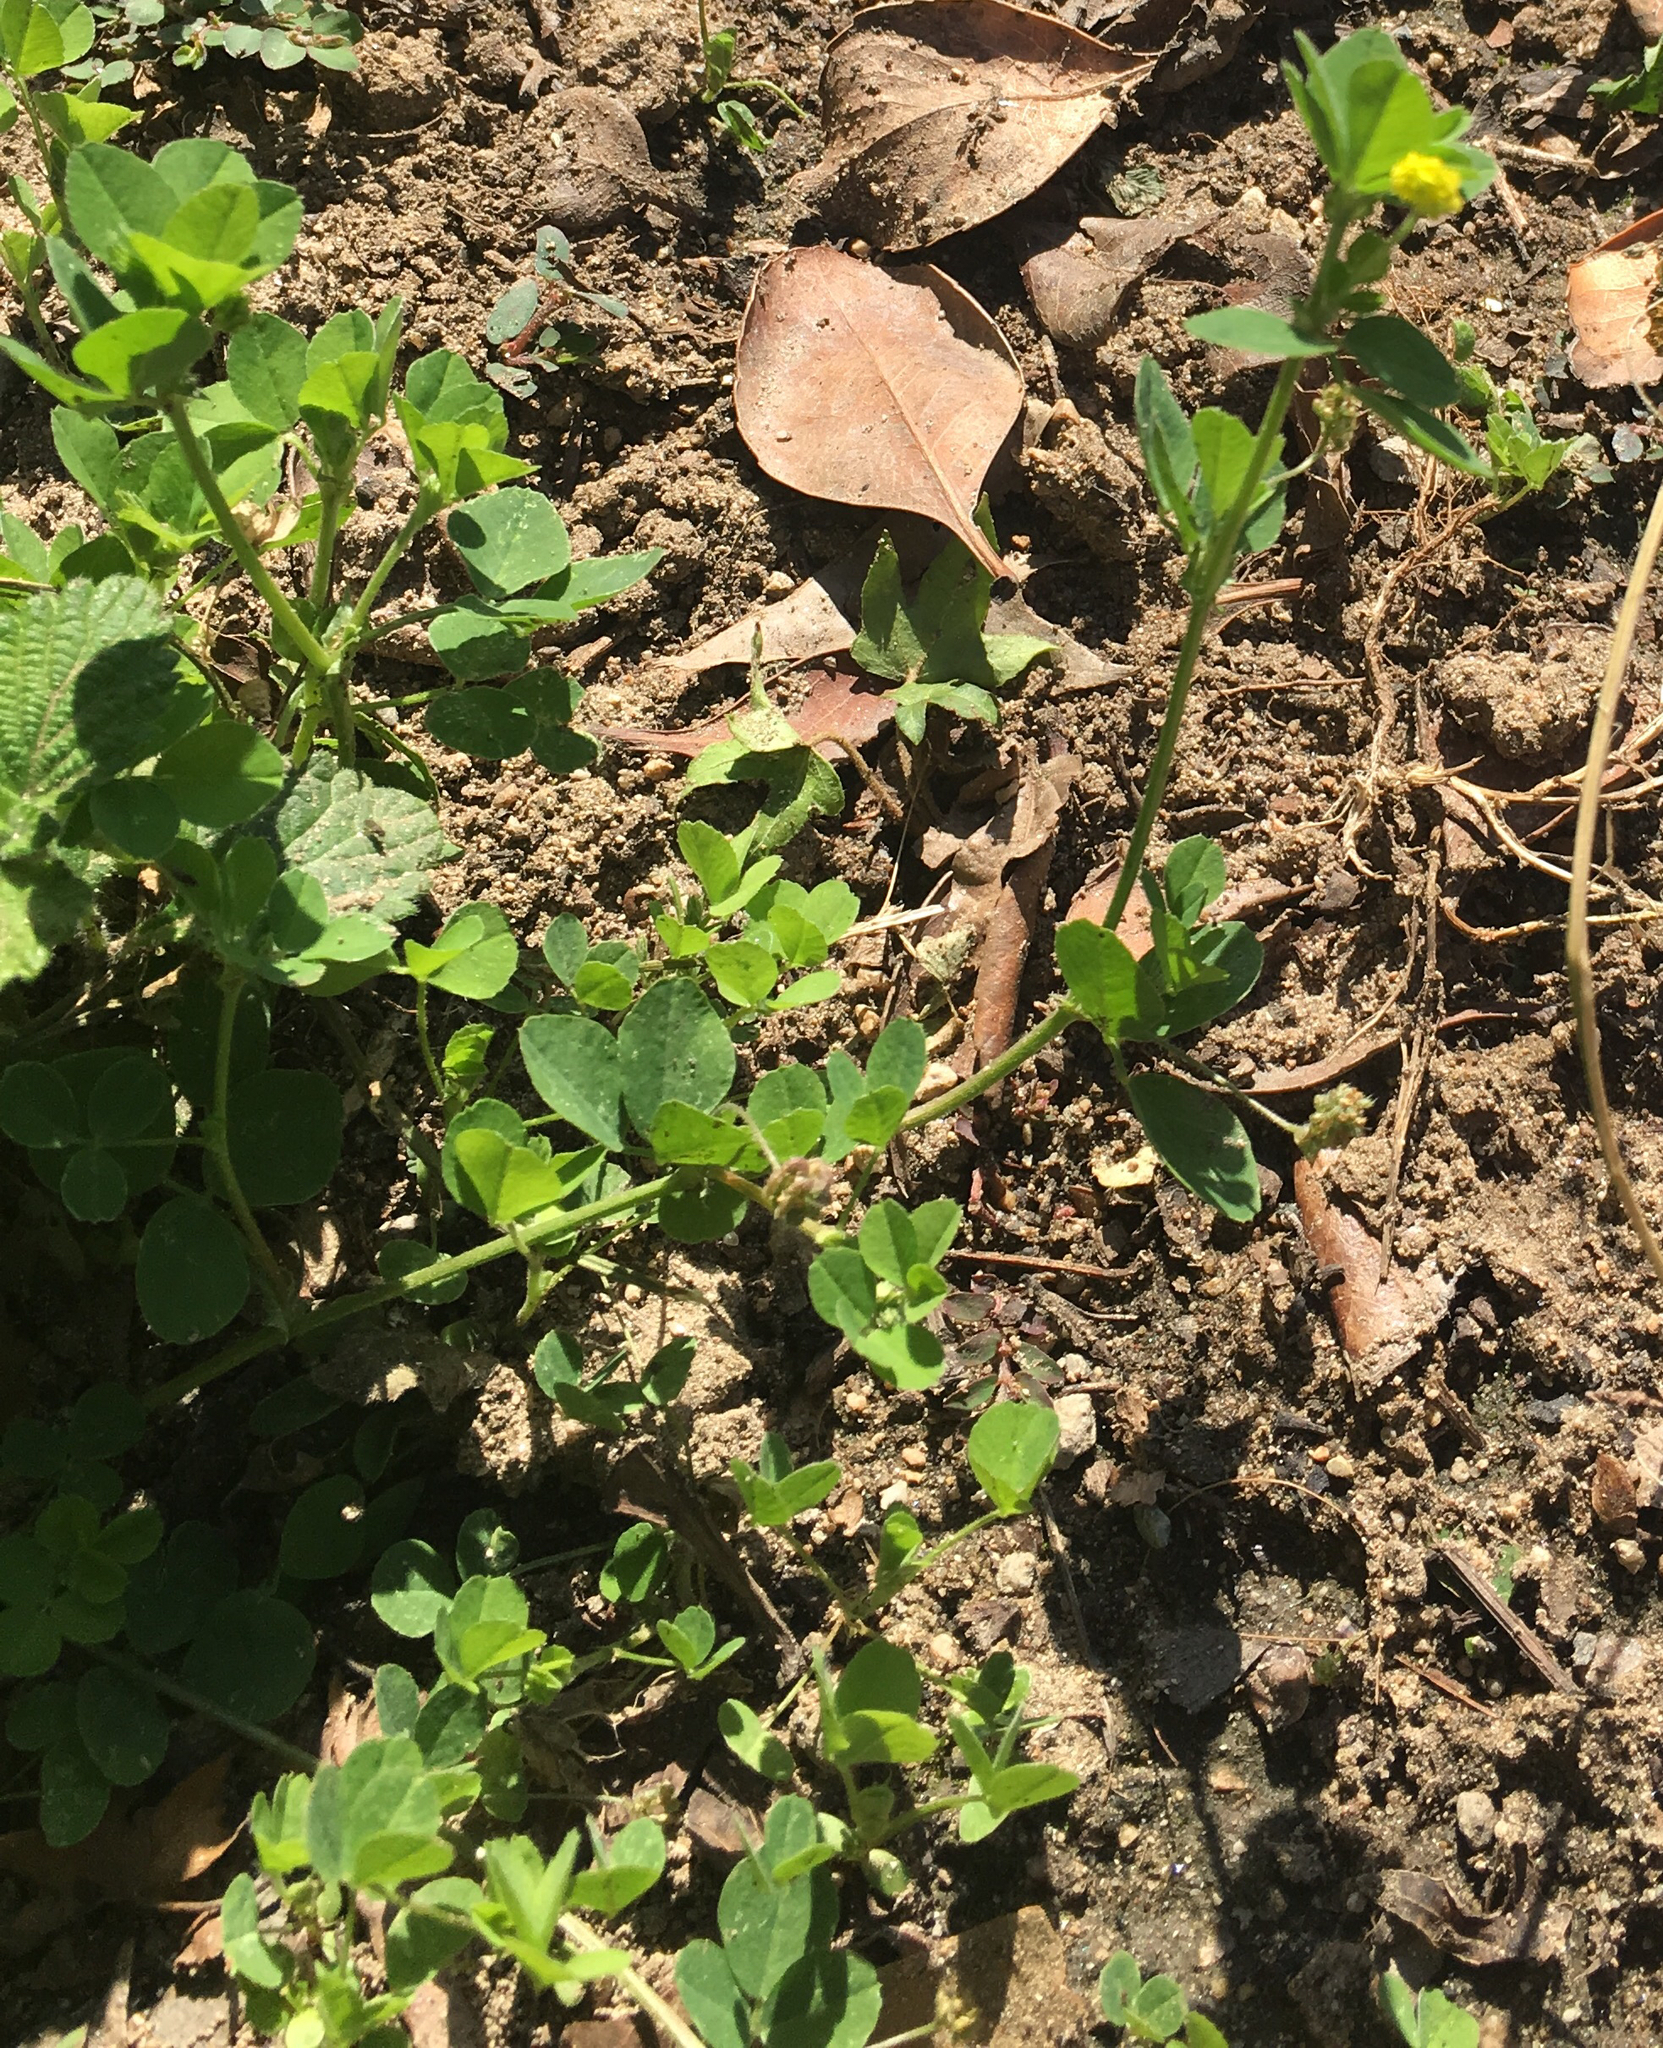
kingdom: Plantae
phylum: Tracheophyta
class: Magnoliopsida
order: Fabales
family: Fabaceae
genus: Medicago
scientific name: Medicago lupulina
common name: Black medick
